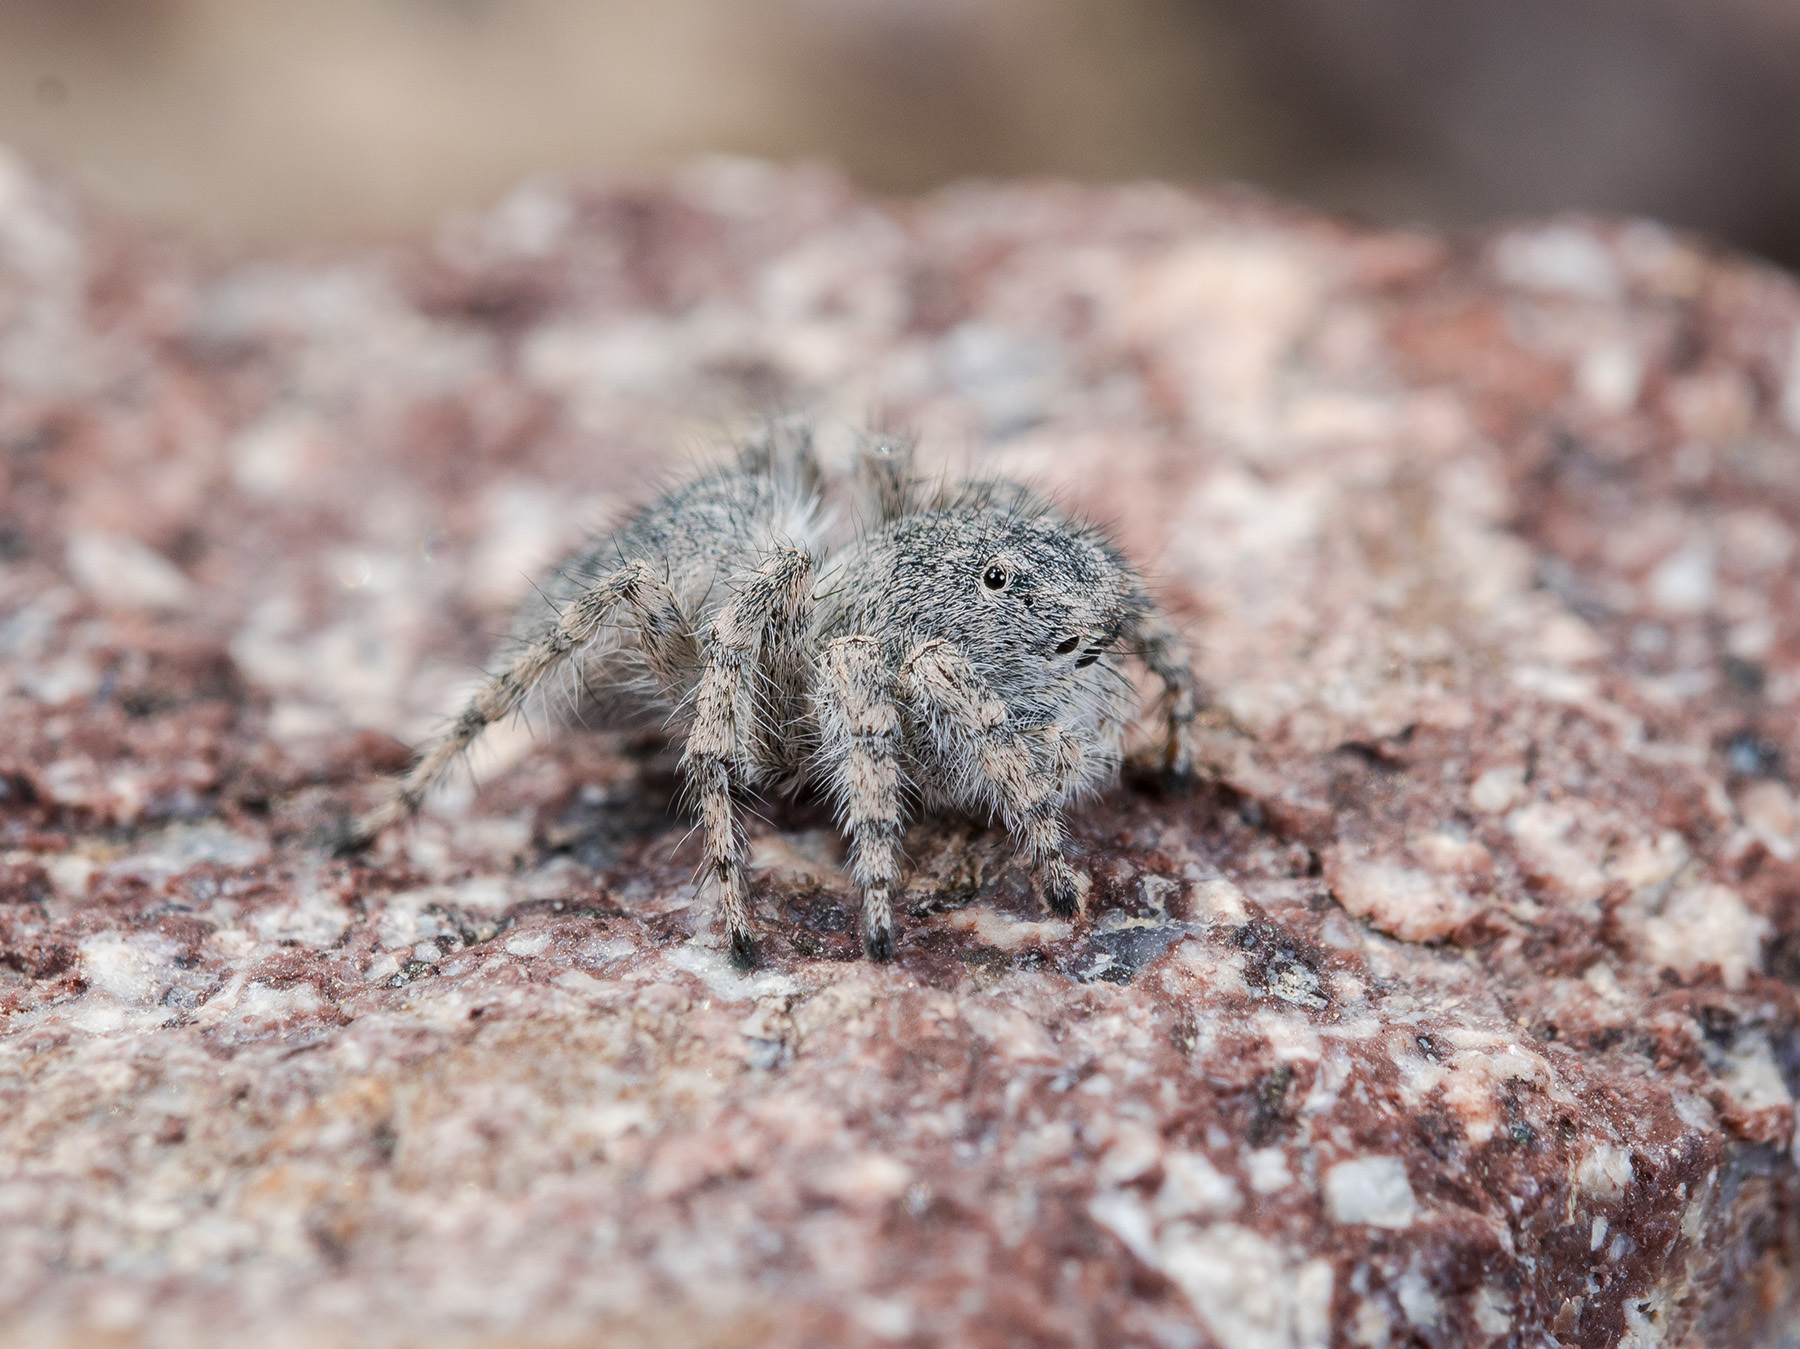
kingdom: Animalia
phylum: Arthropoda
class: Arachnida
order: Araneae
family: Salticidae
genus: Aelurillus
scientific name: Aelurillus dubatolovi
